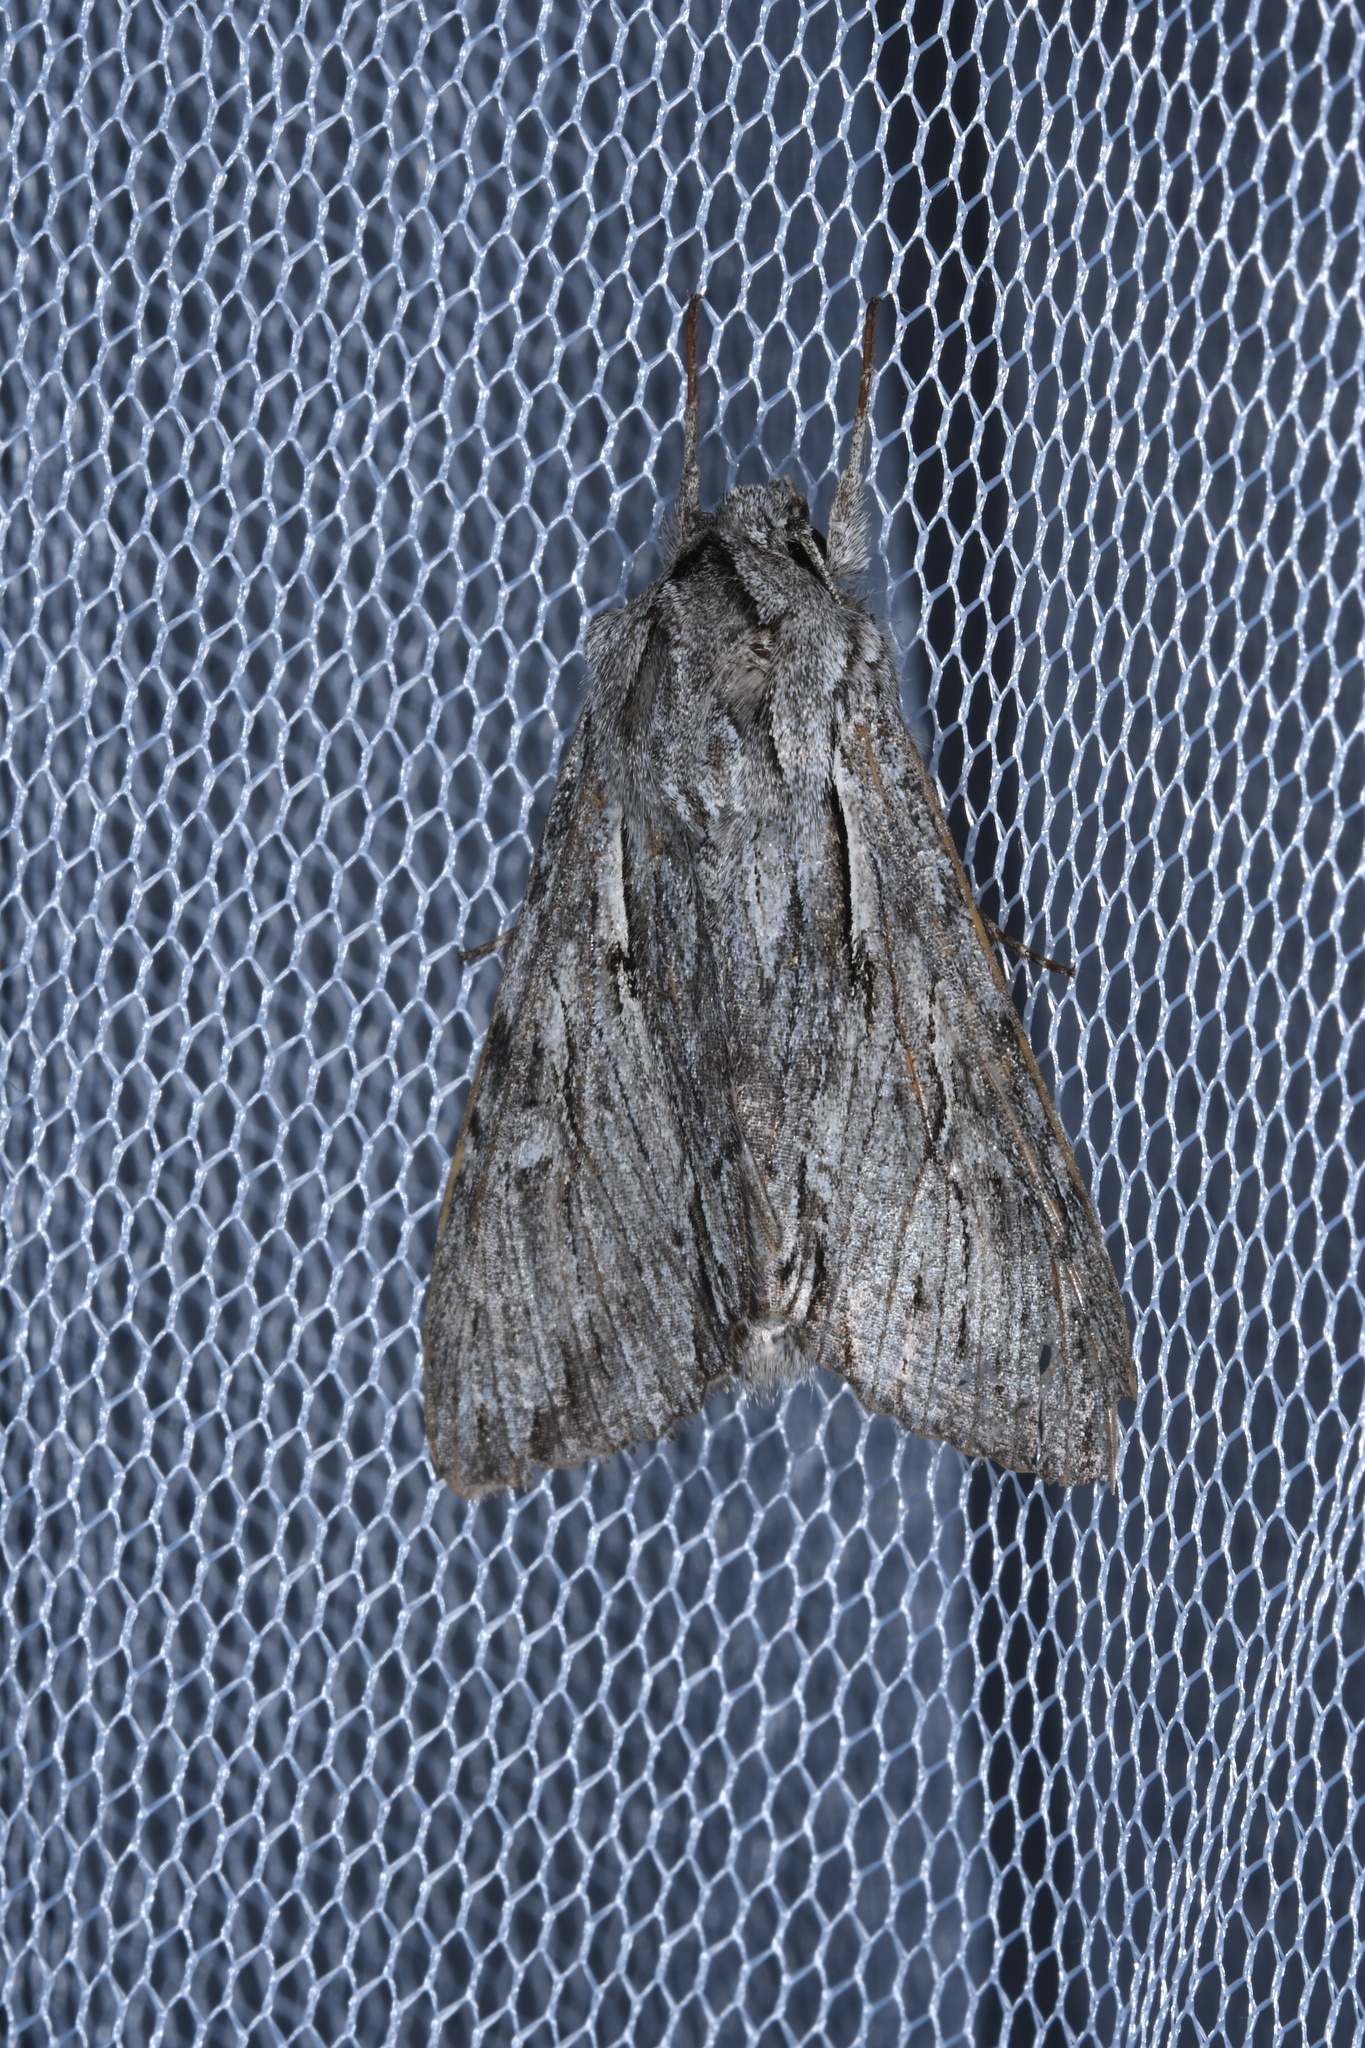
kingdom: Animalia
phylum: Arthropoda
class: Insecta
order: Lepidoptera
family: Noctuidae
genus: Auchmis
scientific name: Auchmis detersa
